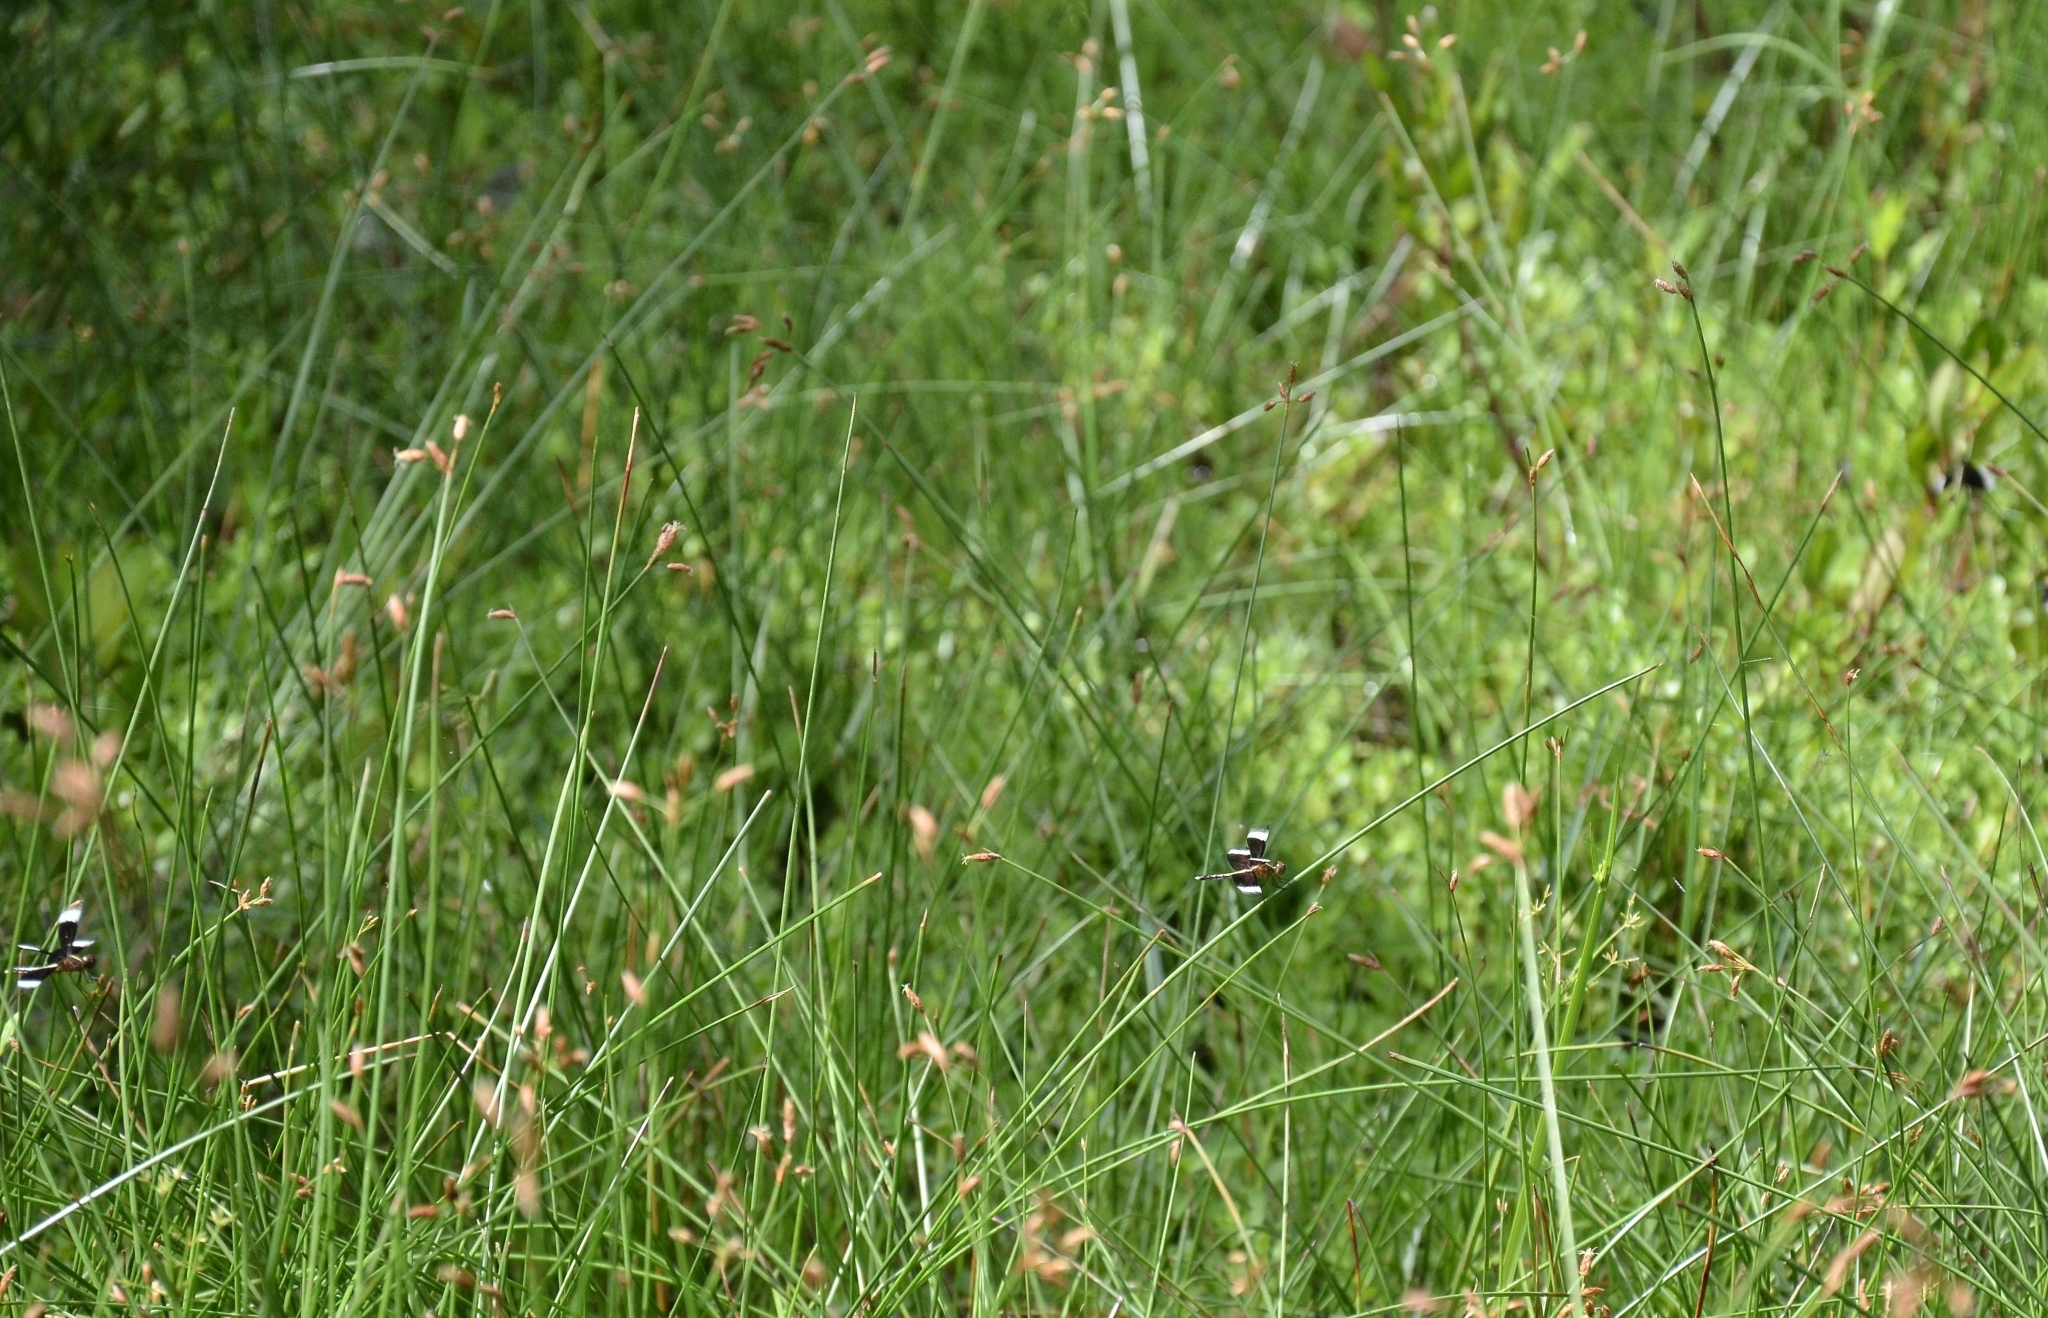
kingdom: Animalia
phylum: Arthropoda
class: Insecta
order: Odonata
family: Libellulidae
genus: Neurothemis
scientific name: Neurothemis tullia
